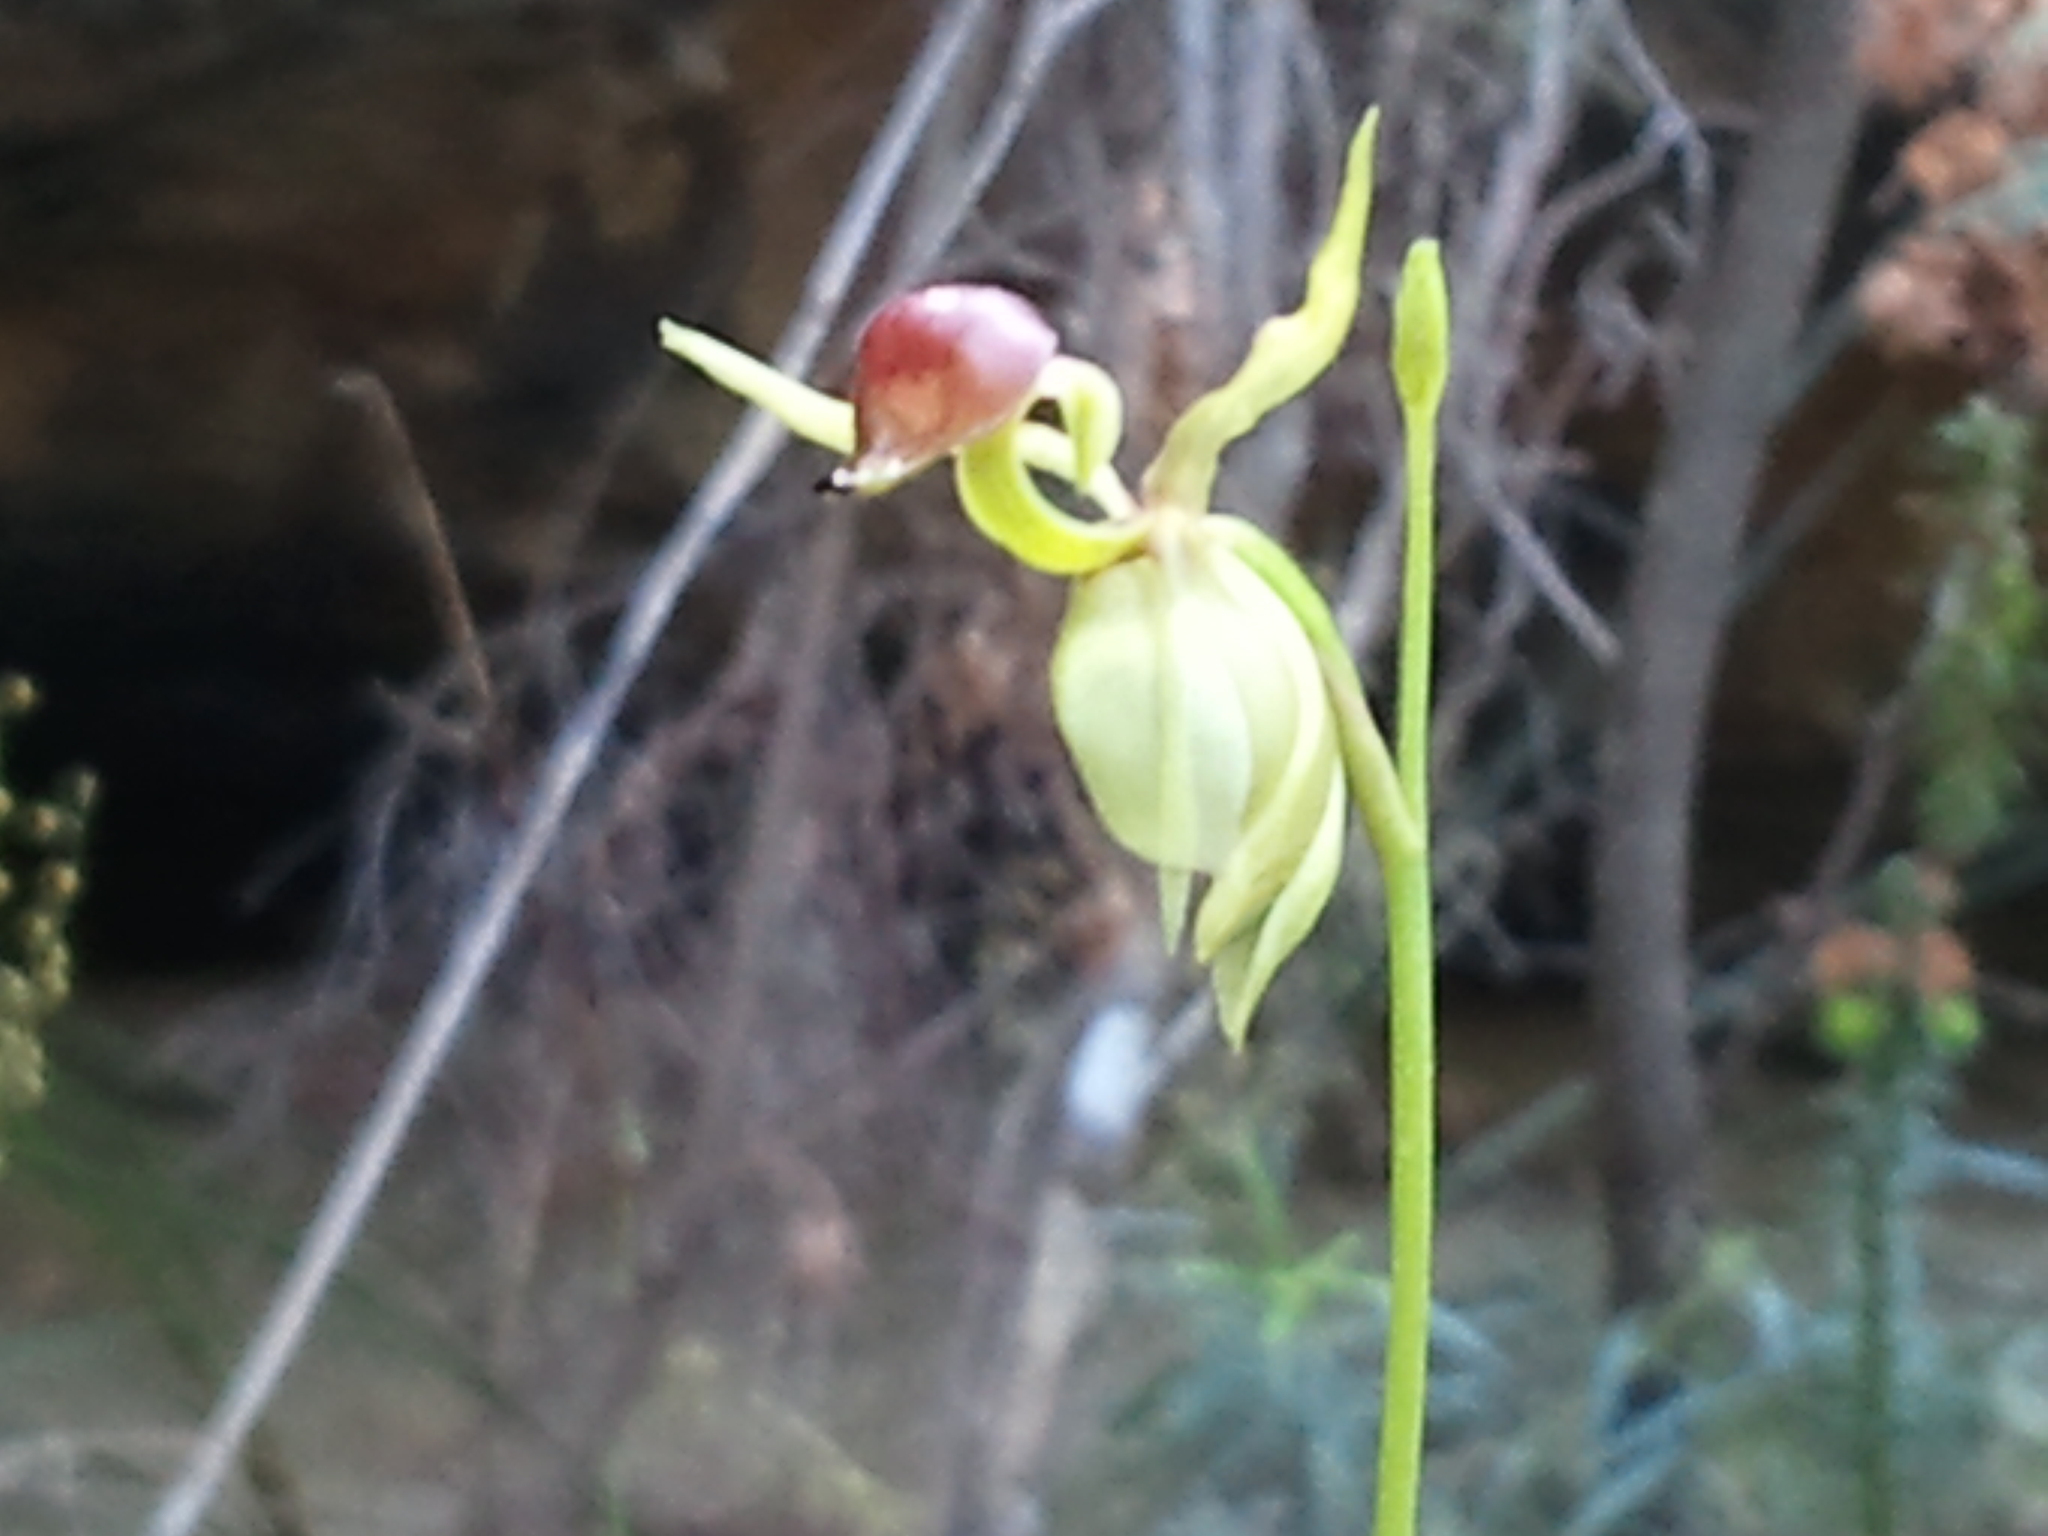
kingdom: Plantae
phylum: Tracheophyta
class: Liliopsida
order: Asparagales
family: Orchidaceae
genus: Caleana
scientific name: Caleana major
